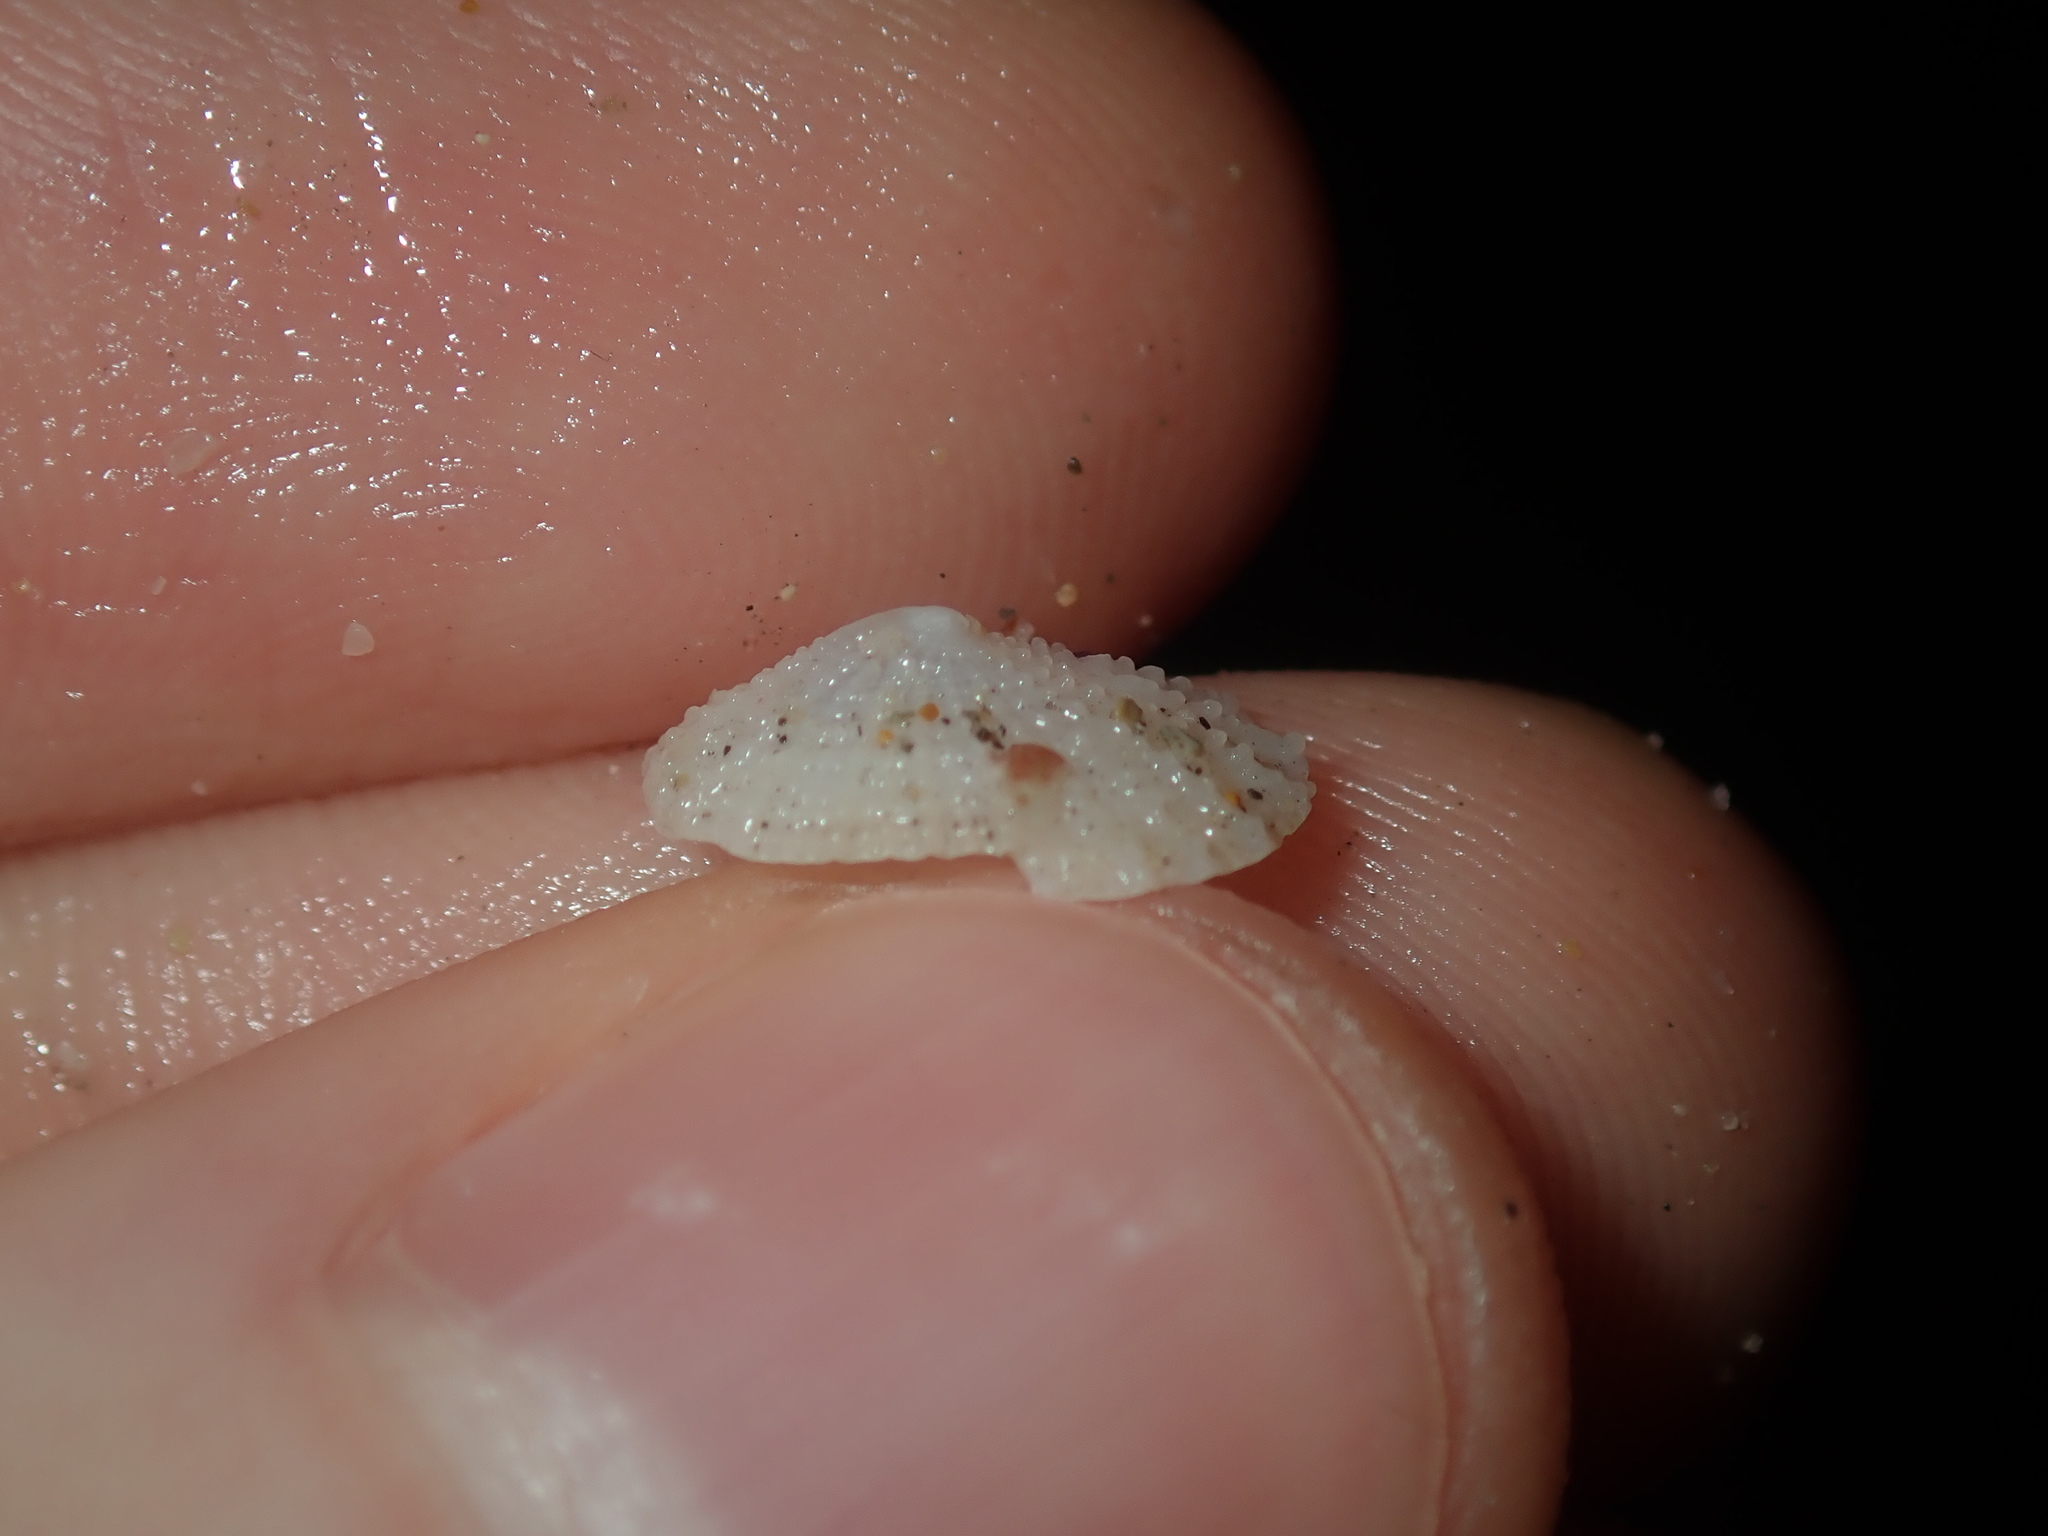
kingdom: Animalia
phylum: Mollusca
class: Gastropoda
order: Lepetellida
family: Fissurellidae
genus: Montfortula
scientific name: Montfortula rugosa
